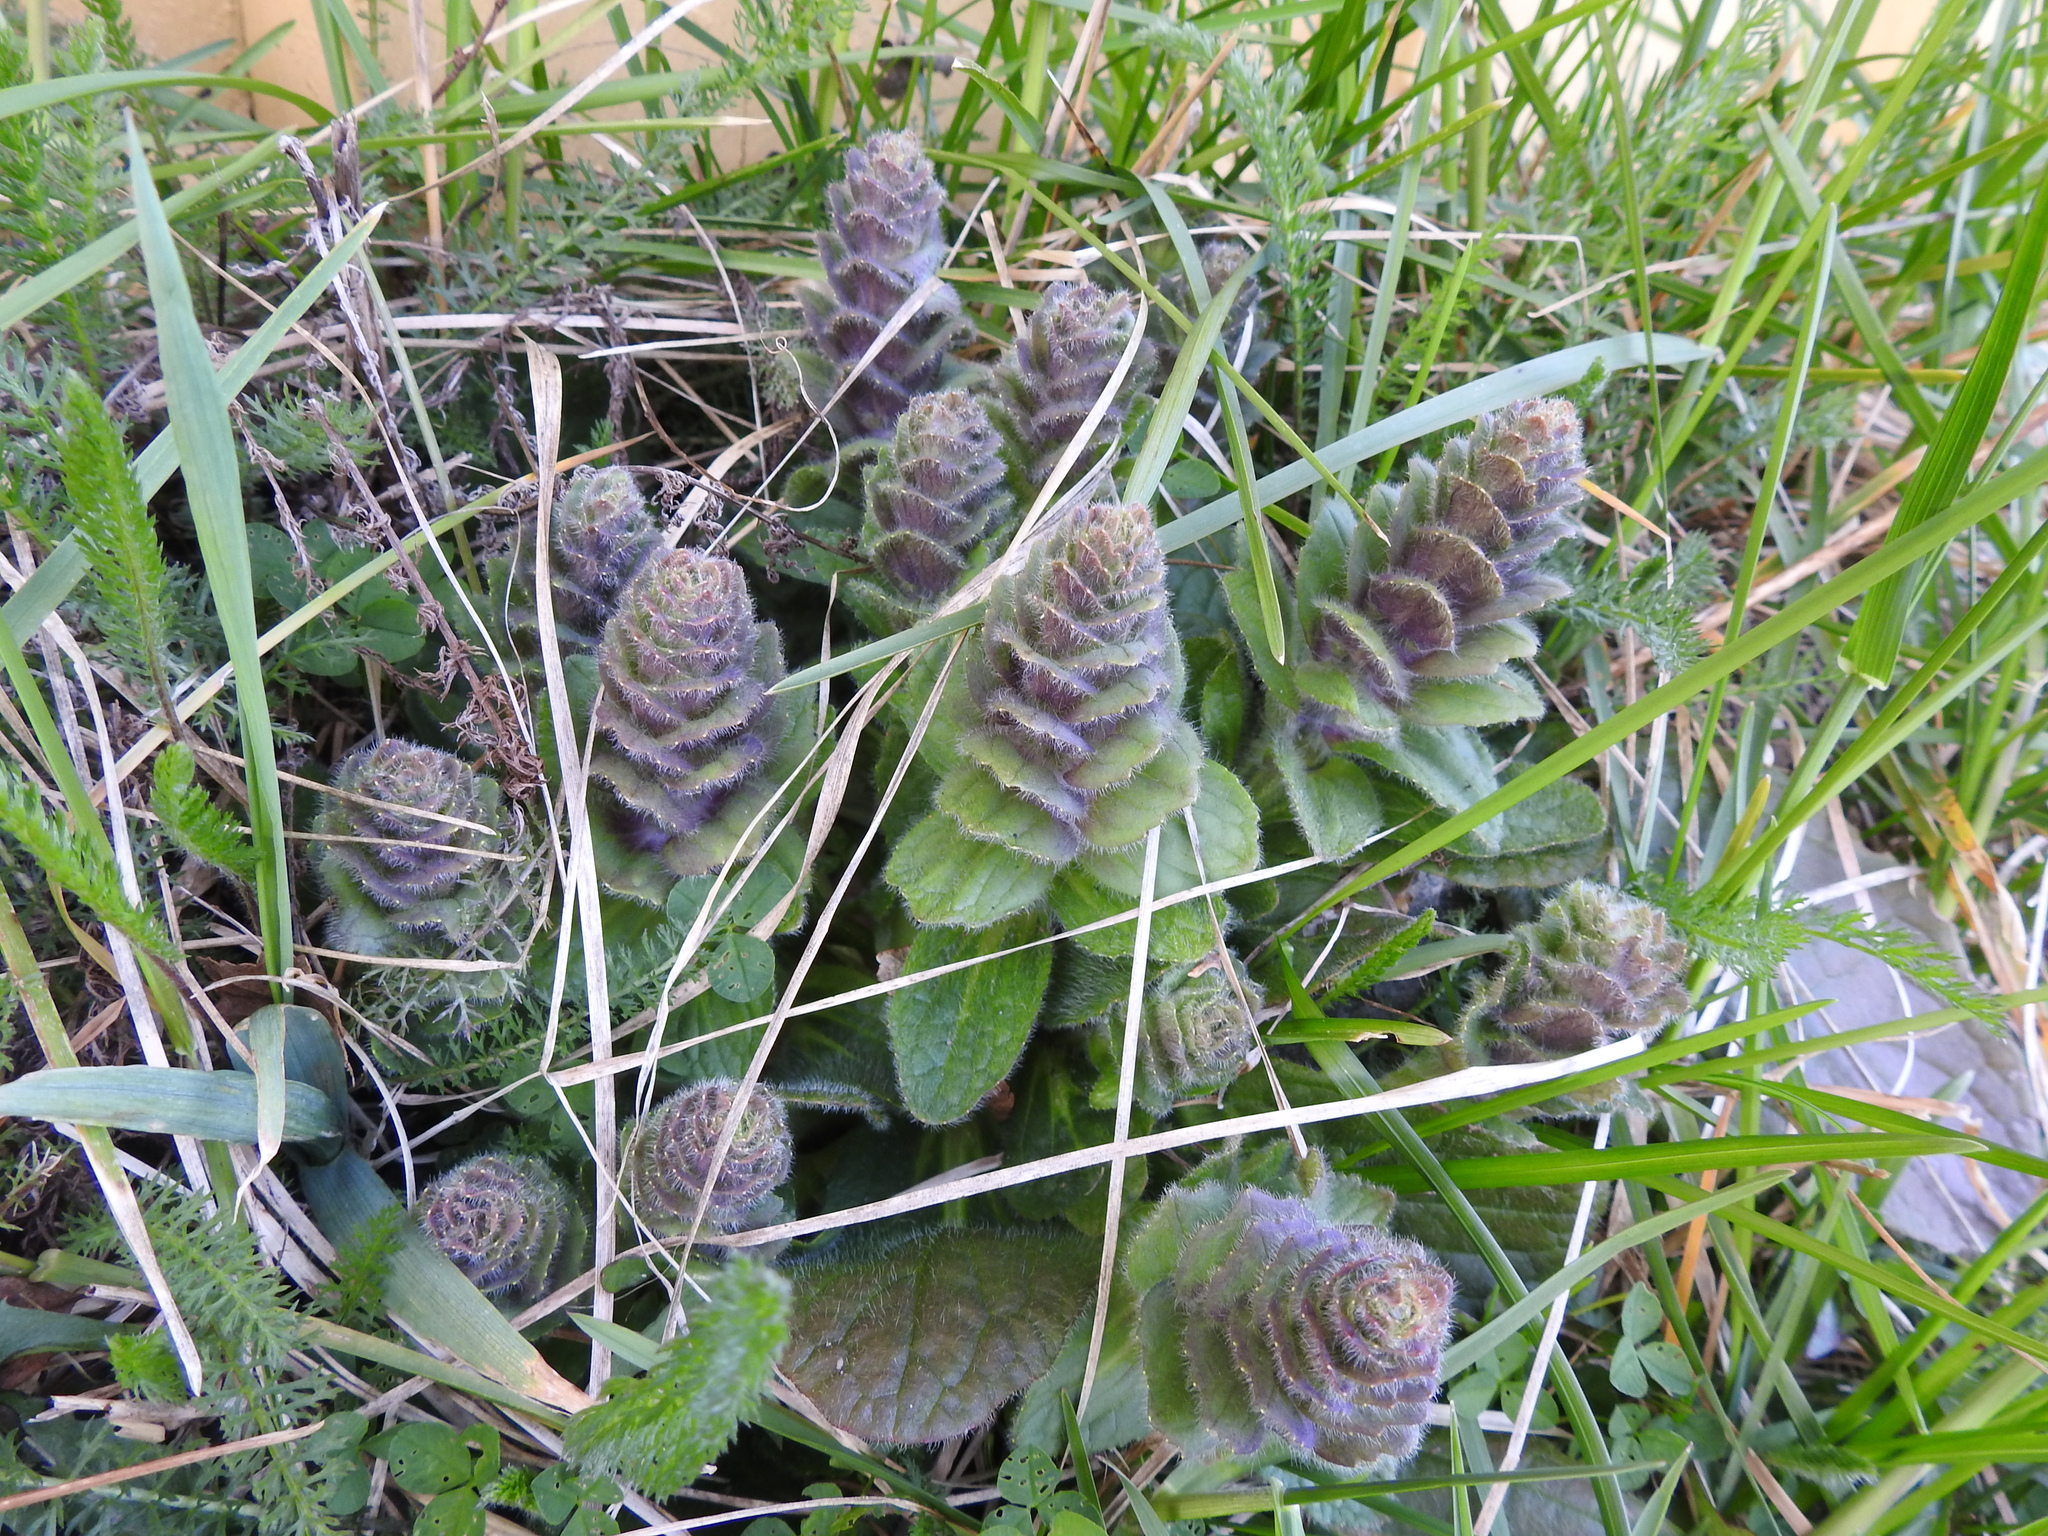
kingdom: Plantae
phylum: Tracheophyta
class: Magnoliopsida
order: Lamiales
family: Lamiaceae
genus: Ajuga
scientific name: Ajuga pyramidalis
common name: Pyramid bugle
